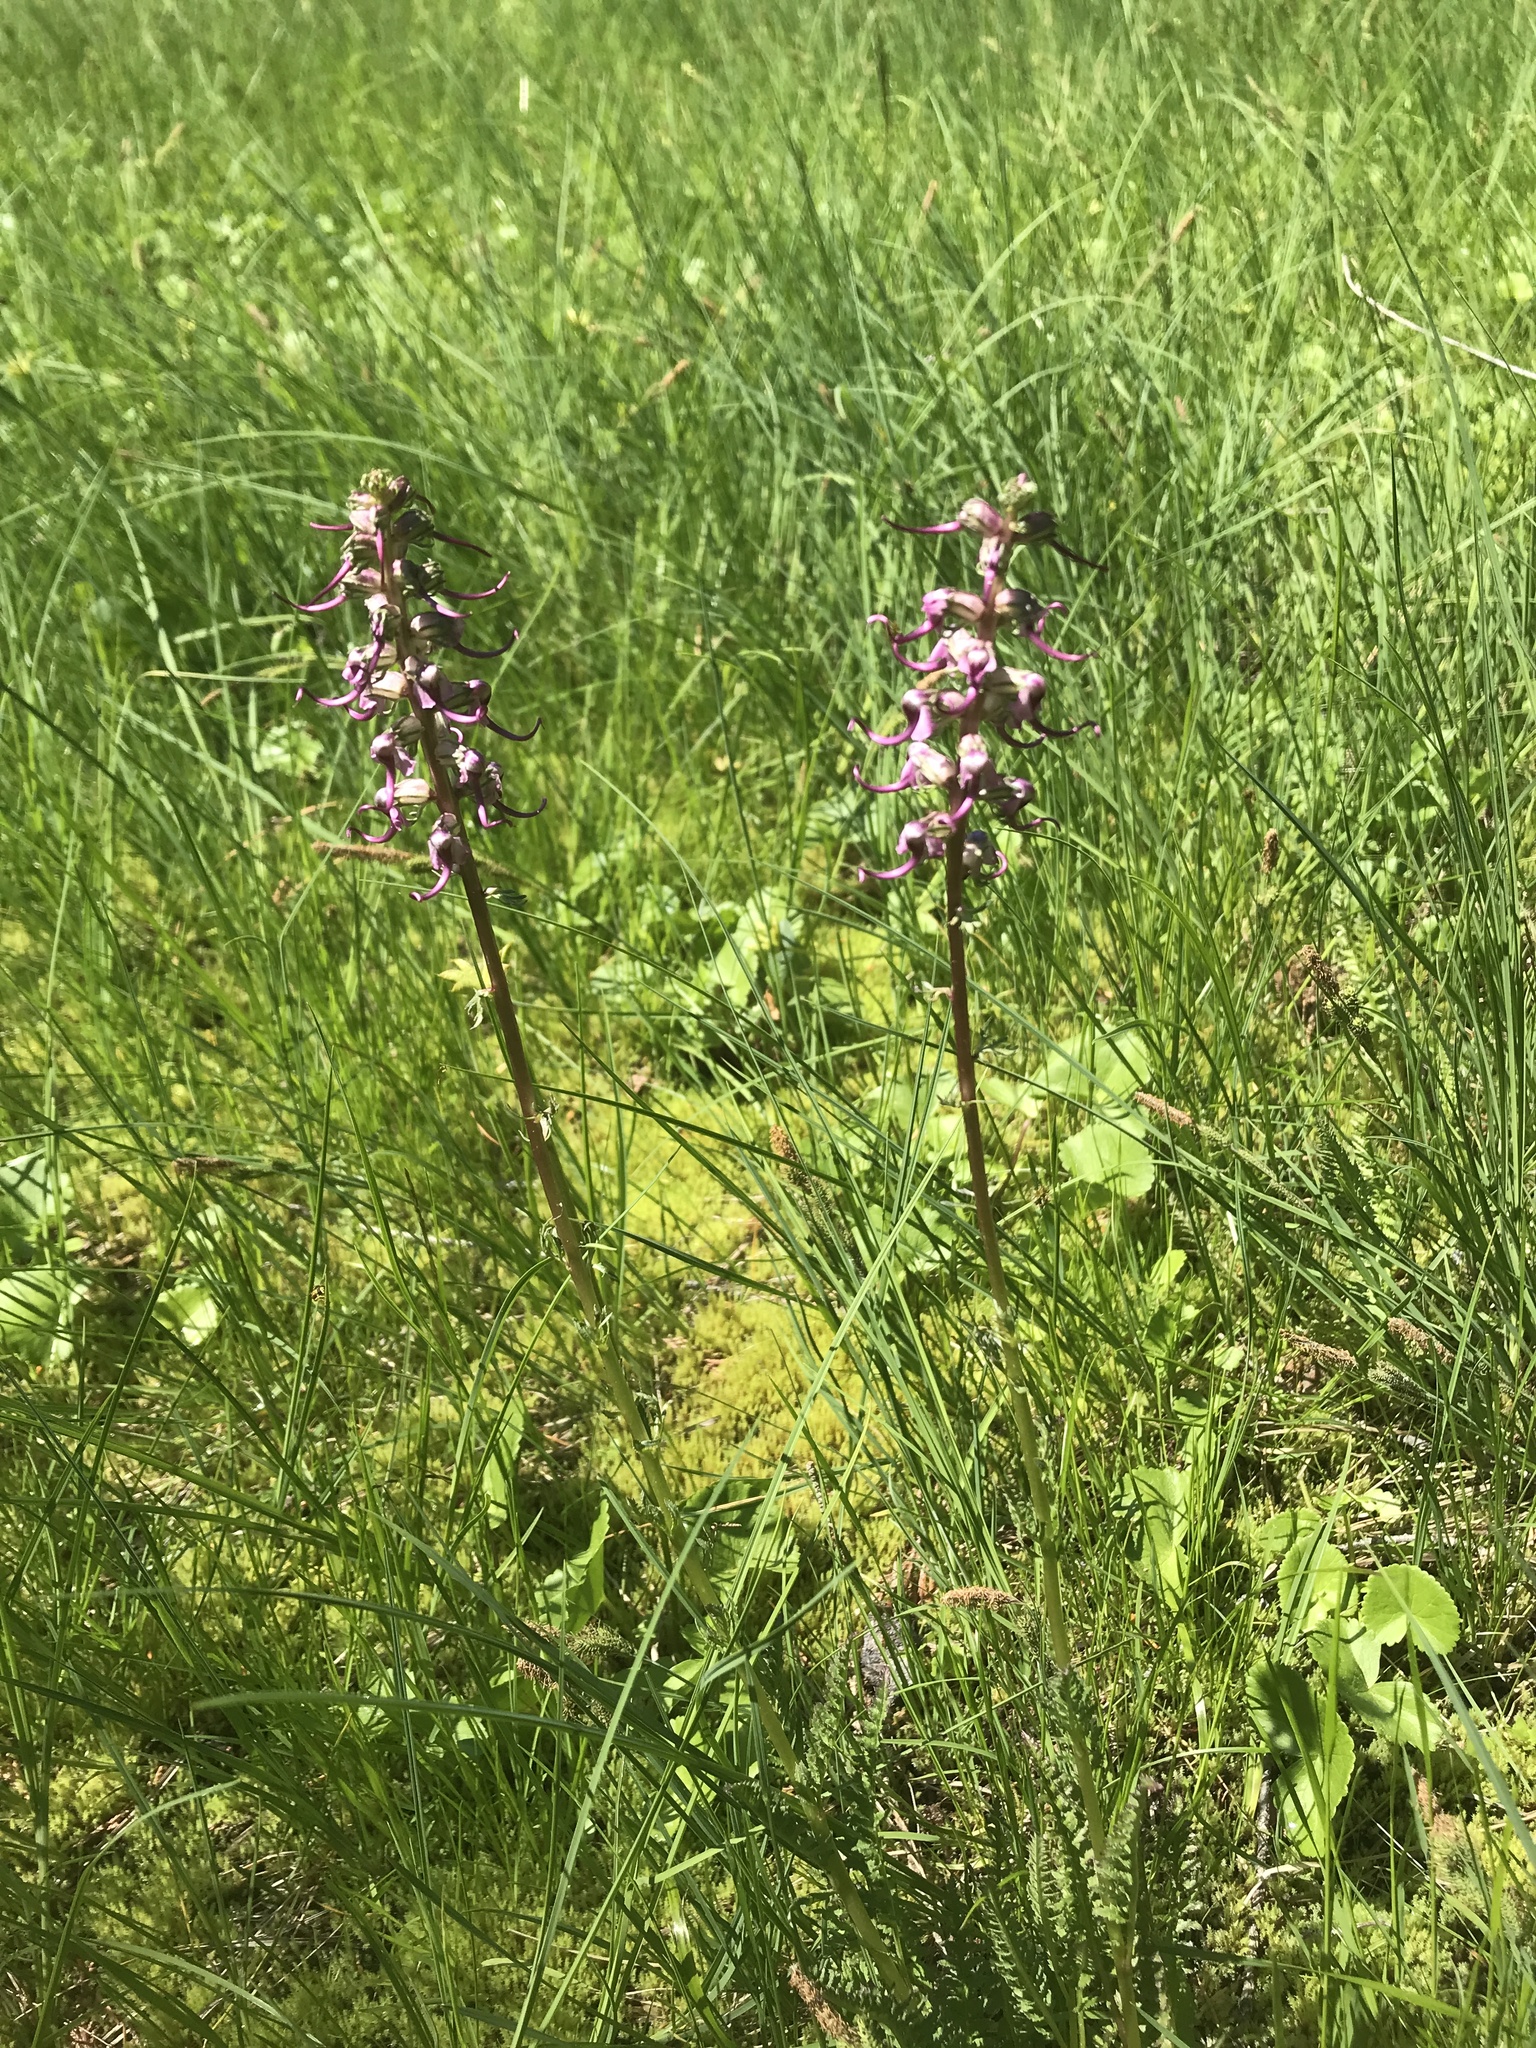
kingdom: Plantae
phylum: Tracheophyta
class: Magnoliopsida
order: Lamiales
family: Orobanchaceae
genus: Pedicularis
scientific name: Pedicularis groenlandica
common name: Elephant's-head
